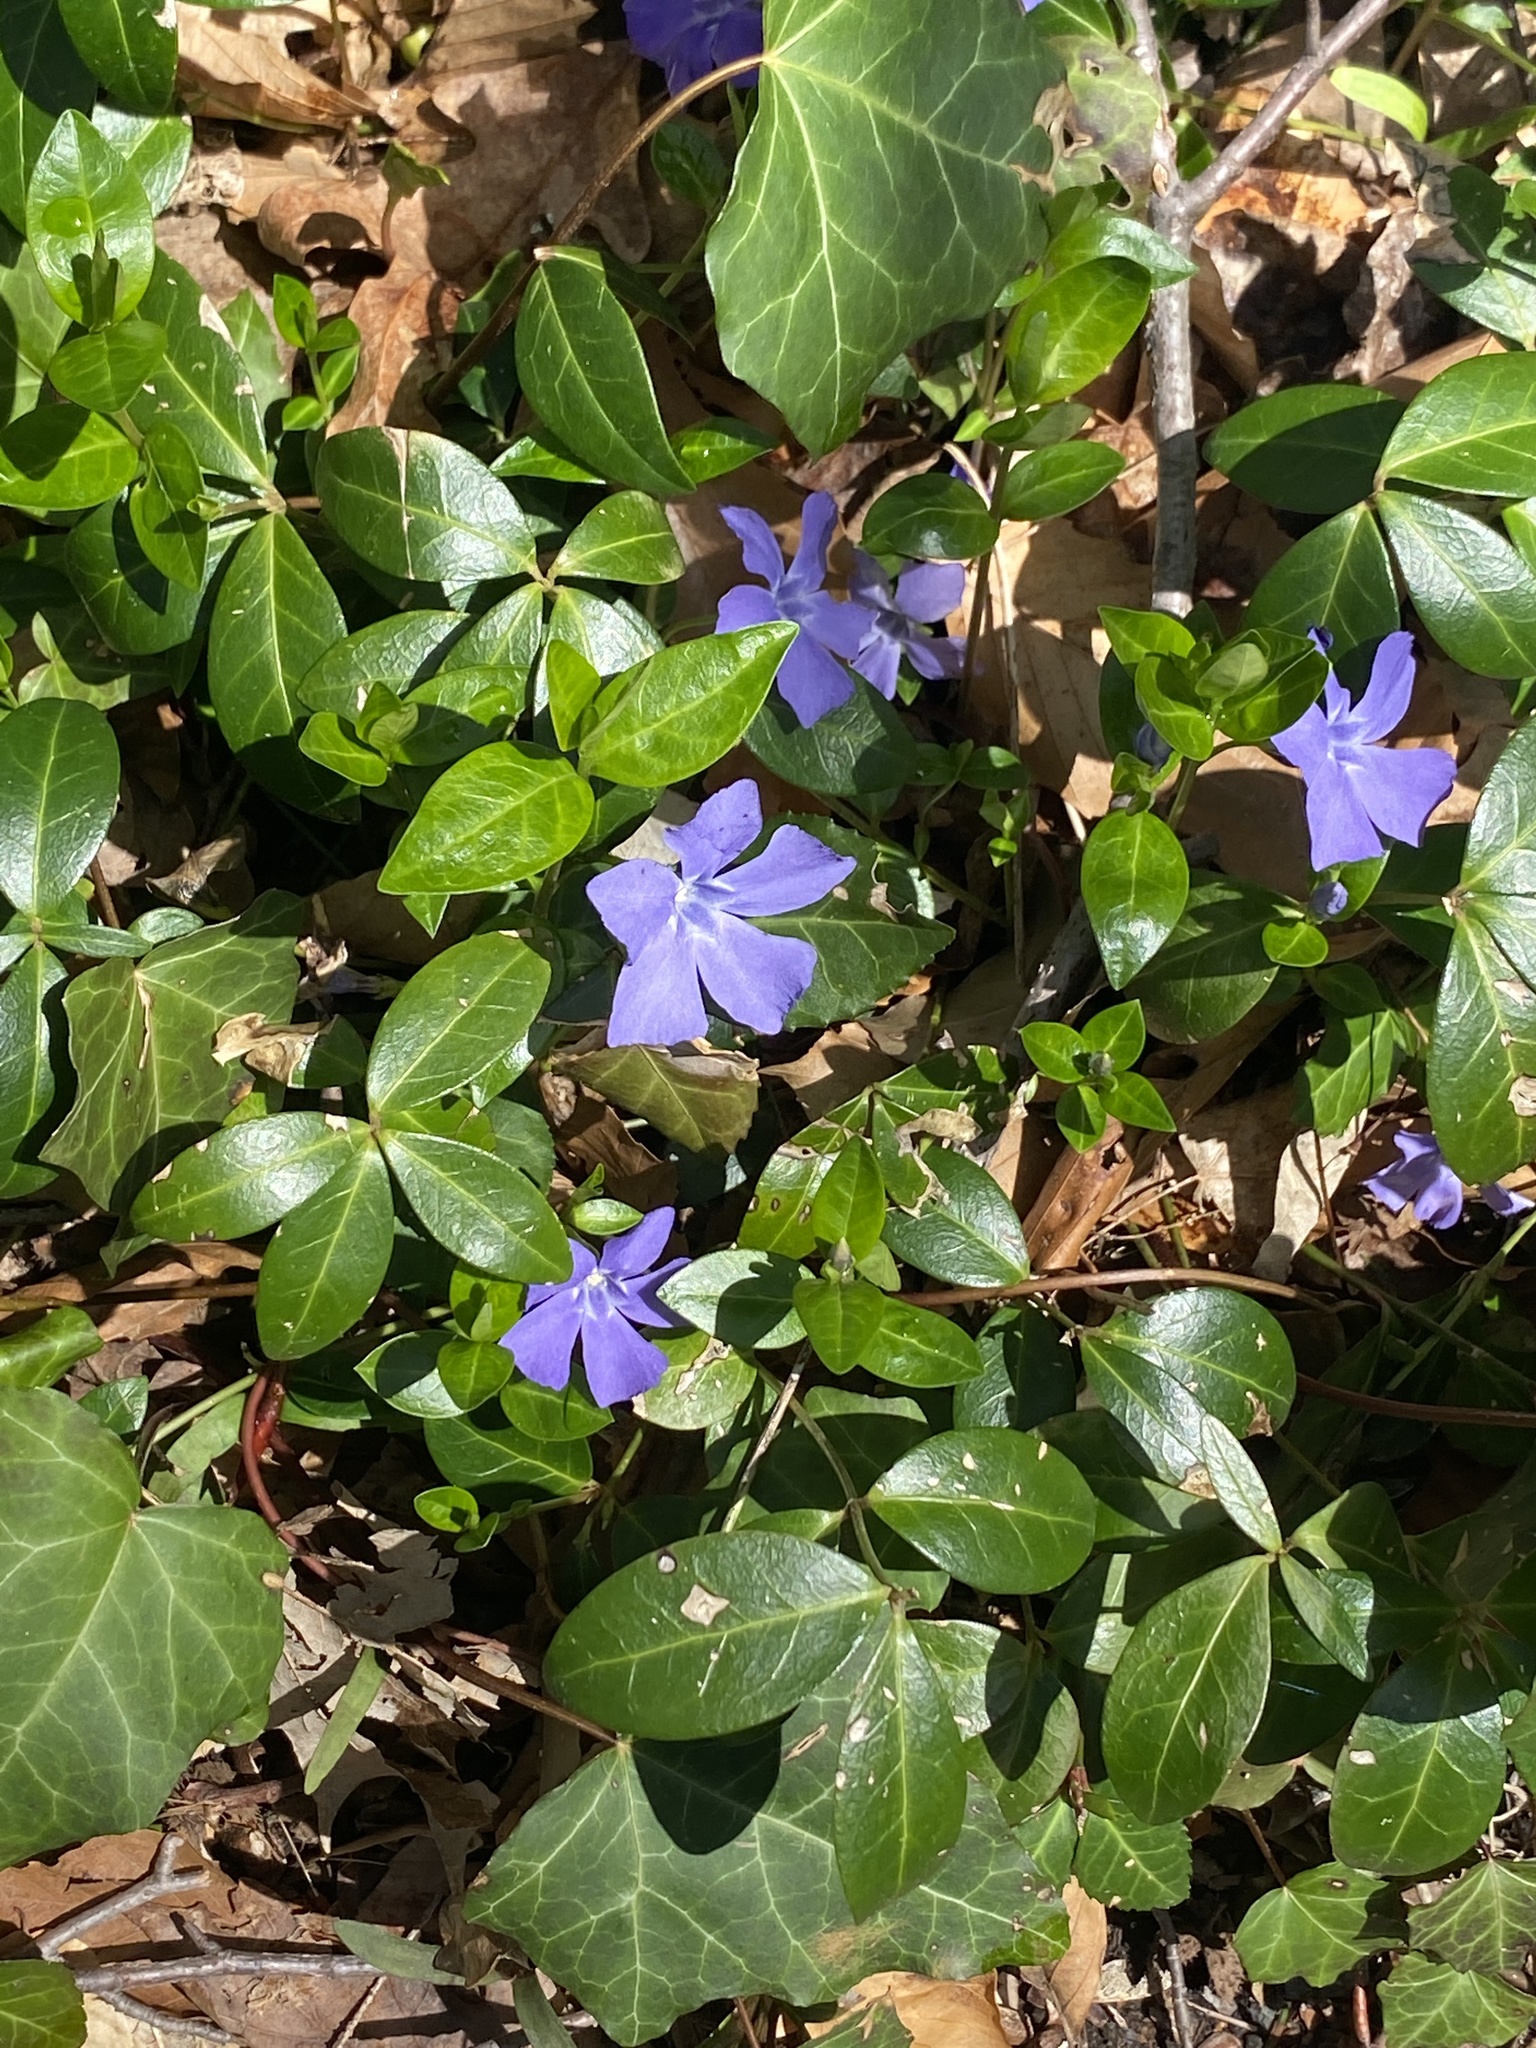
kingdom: Plantae
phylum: Tracheophyta
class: Magnoliopsida
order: Gentianales
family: Apocynaceae
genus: Vinca
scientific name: Vinca minor
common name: Lesser periwinkle
